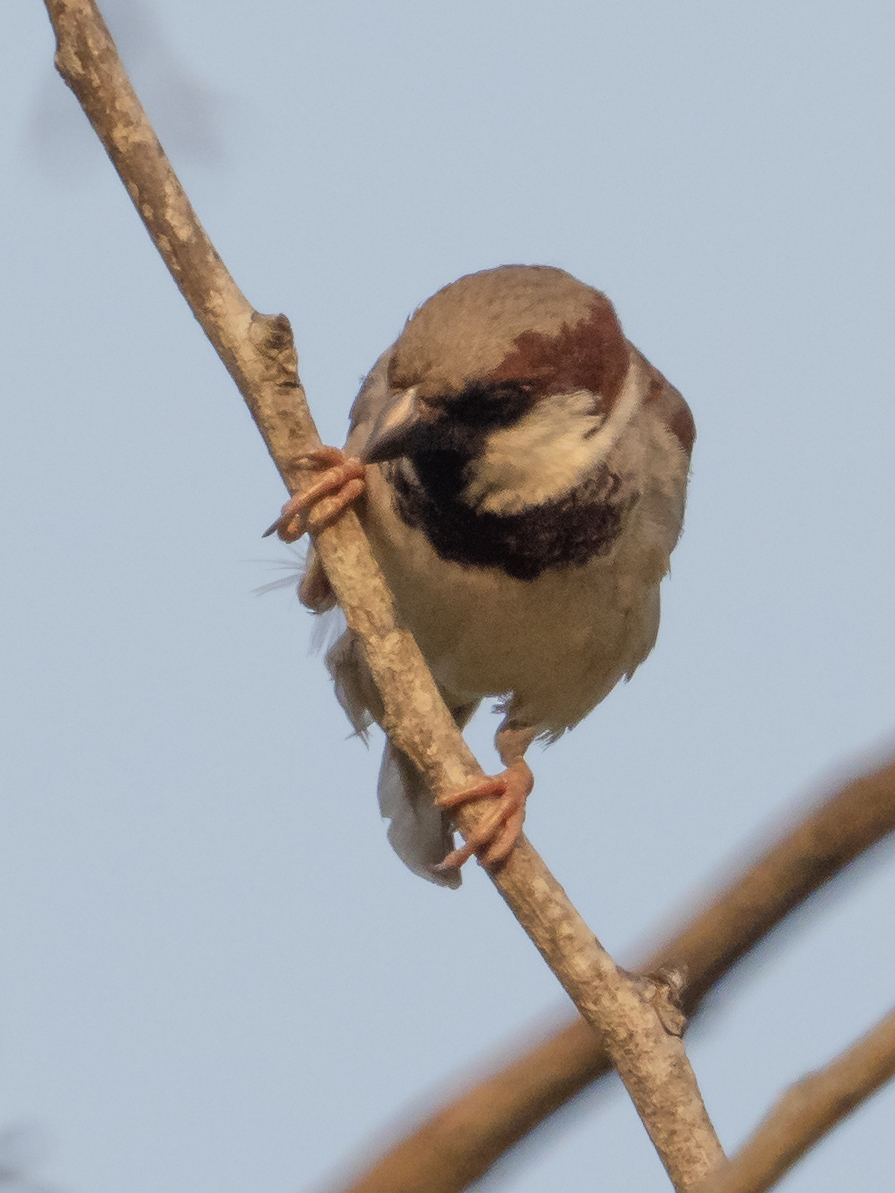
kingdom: Animalia
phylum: Chordata
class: Aves
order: Passeriformes
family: Passeridae
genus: Passer
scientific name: Passer domesticus
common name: House sparrow
